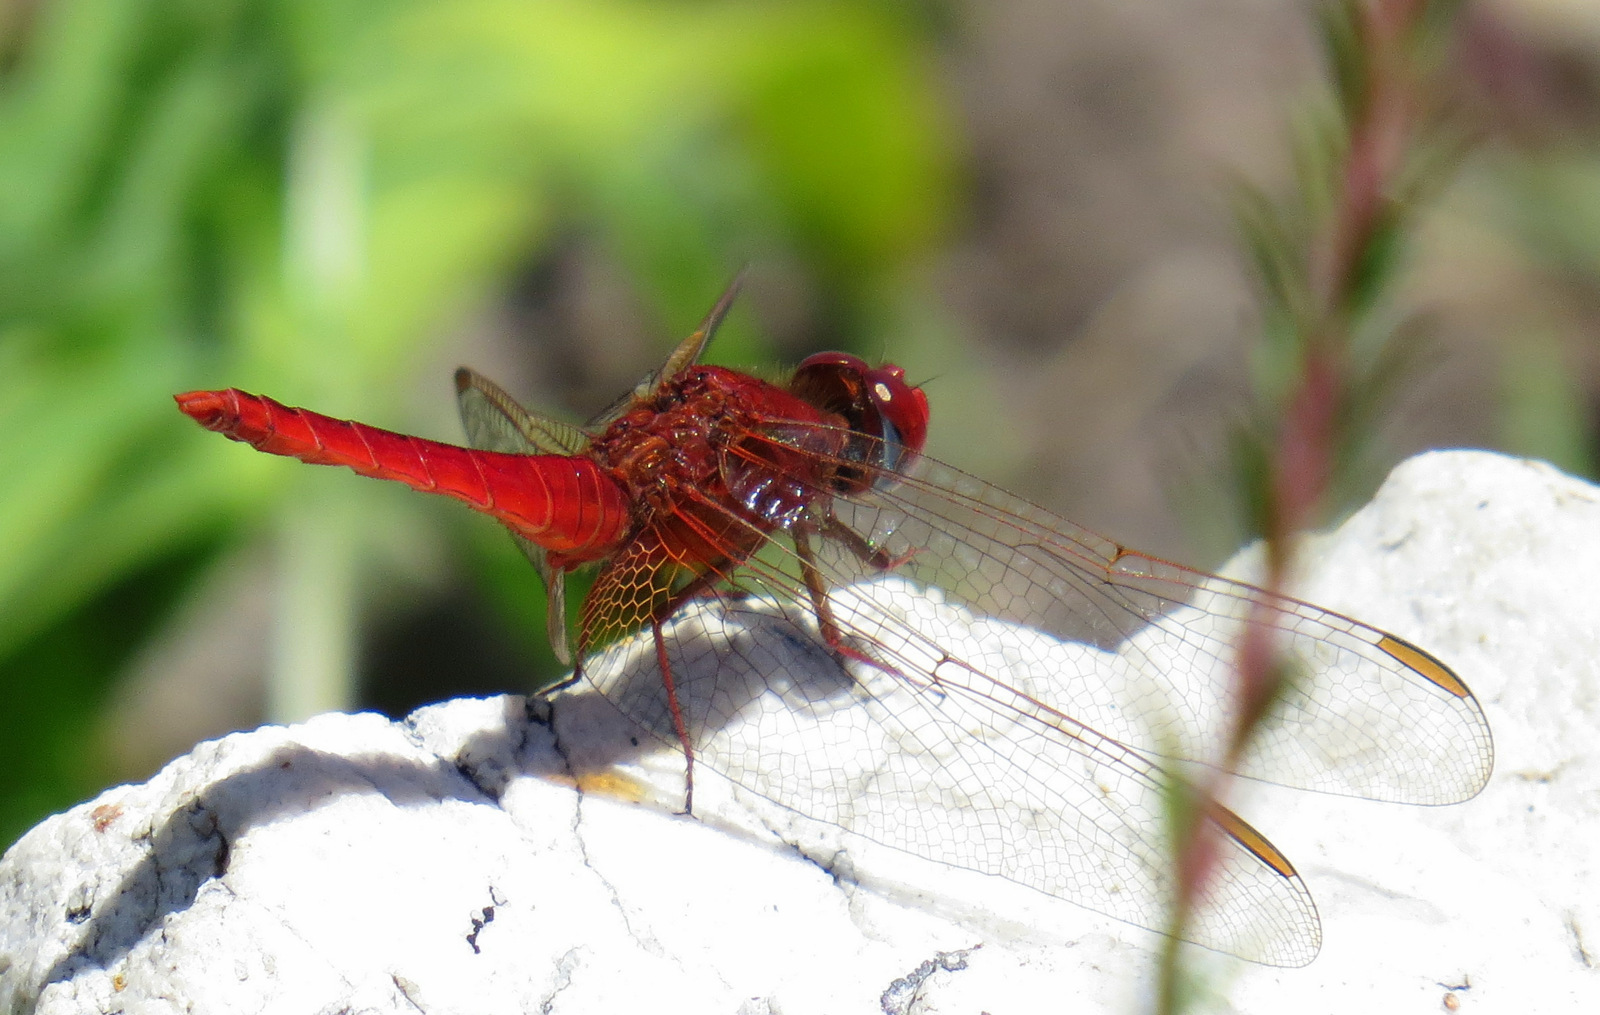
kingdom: Animalia
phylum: Arthropoda
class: Insecta
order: Odonata
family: Libellulidae
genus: Crocothemis
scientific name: Crocothemis erythraea
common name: Scarlet dragonfly
